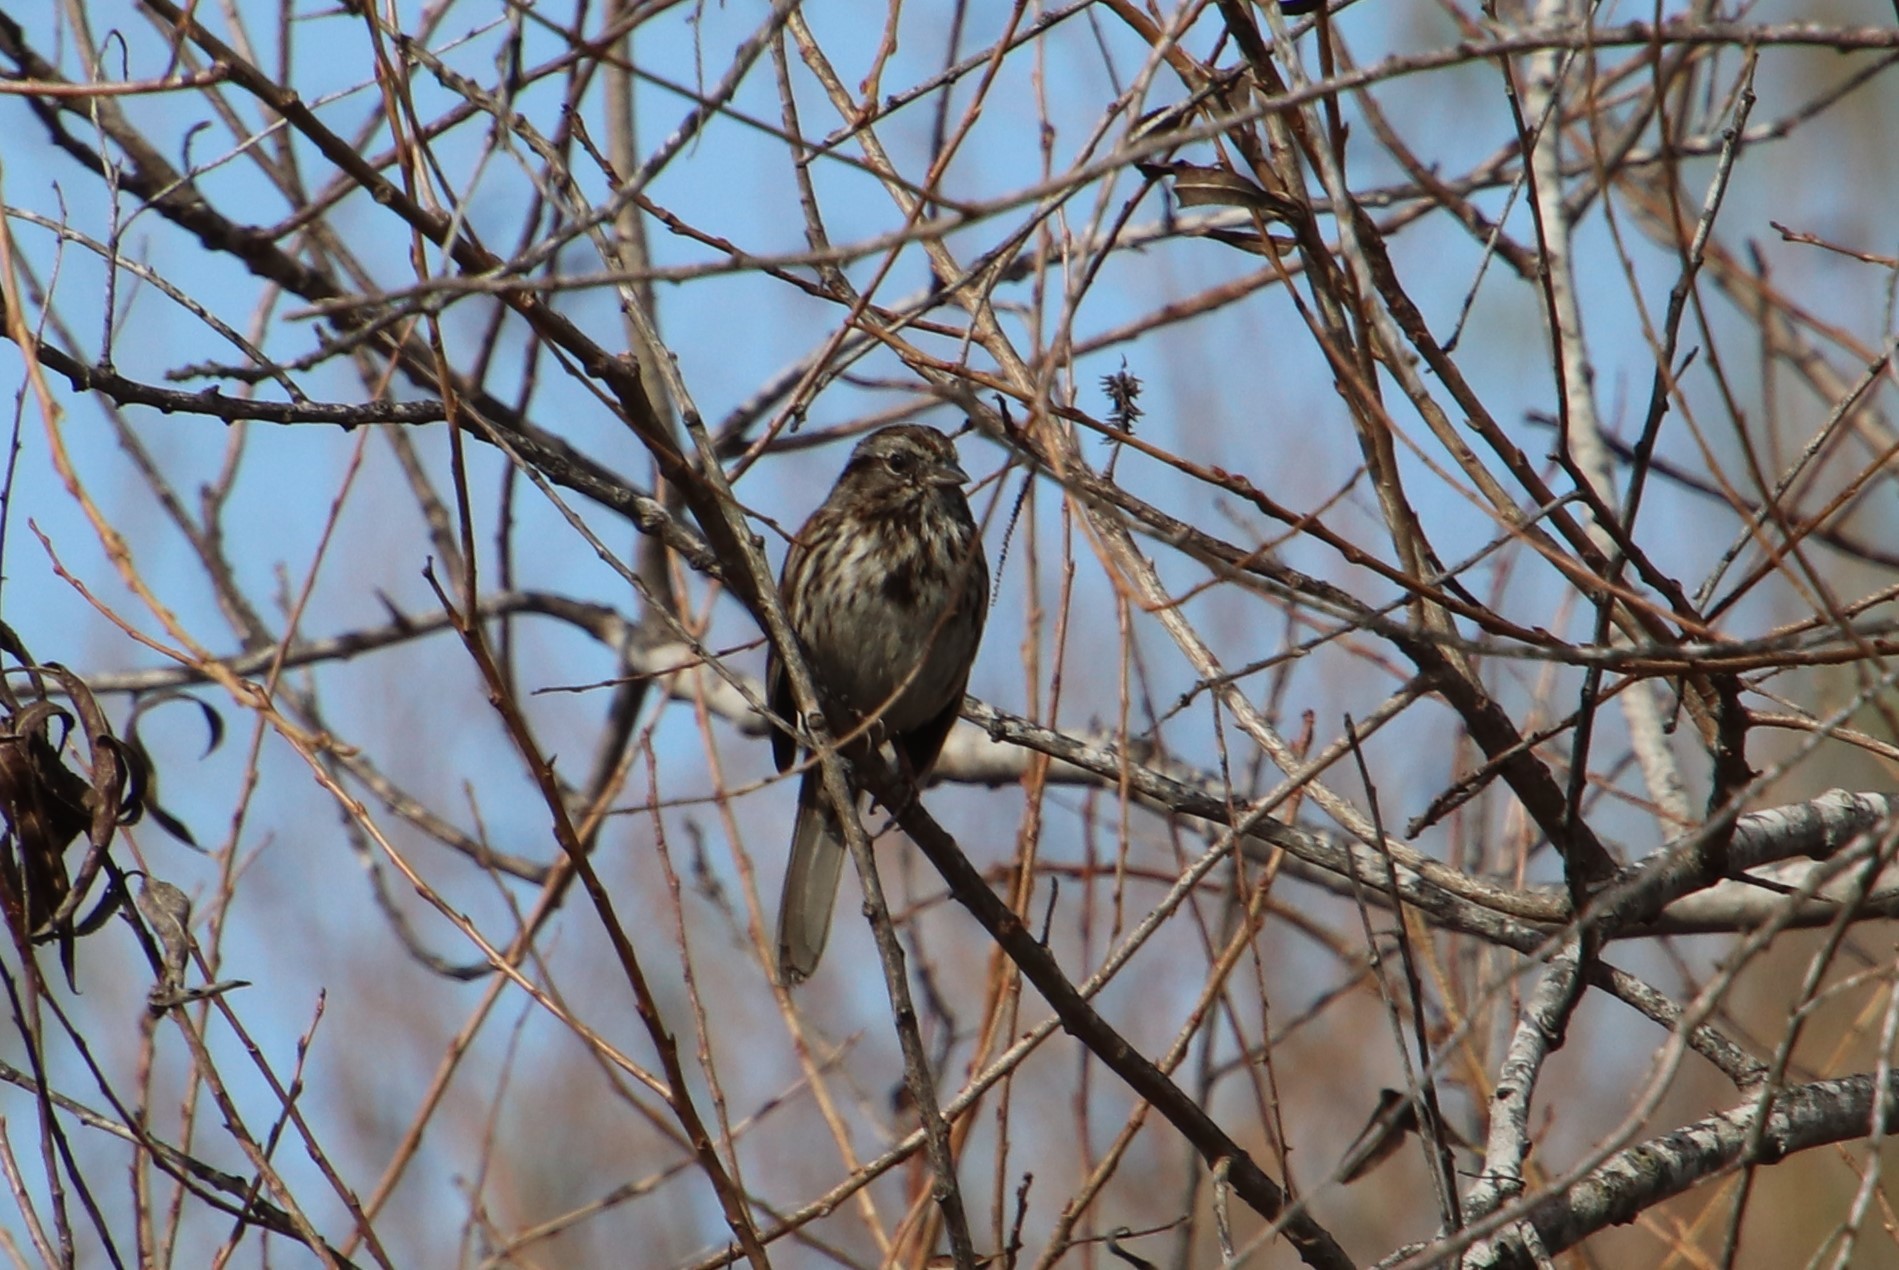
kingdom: Animalia
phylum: Chordata
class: Aves
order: Passeriformes
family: Passerellidae
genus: Melospiza
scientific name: Melospiza melodia
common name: Song sparrow
